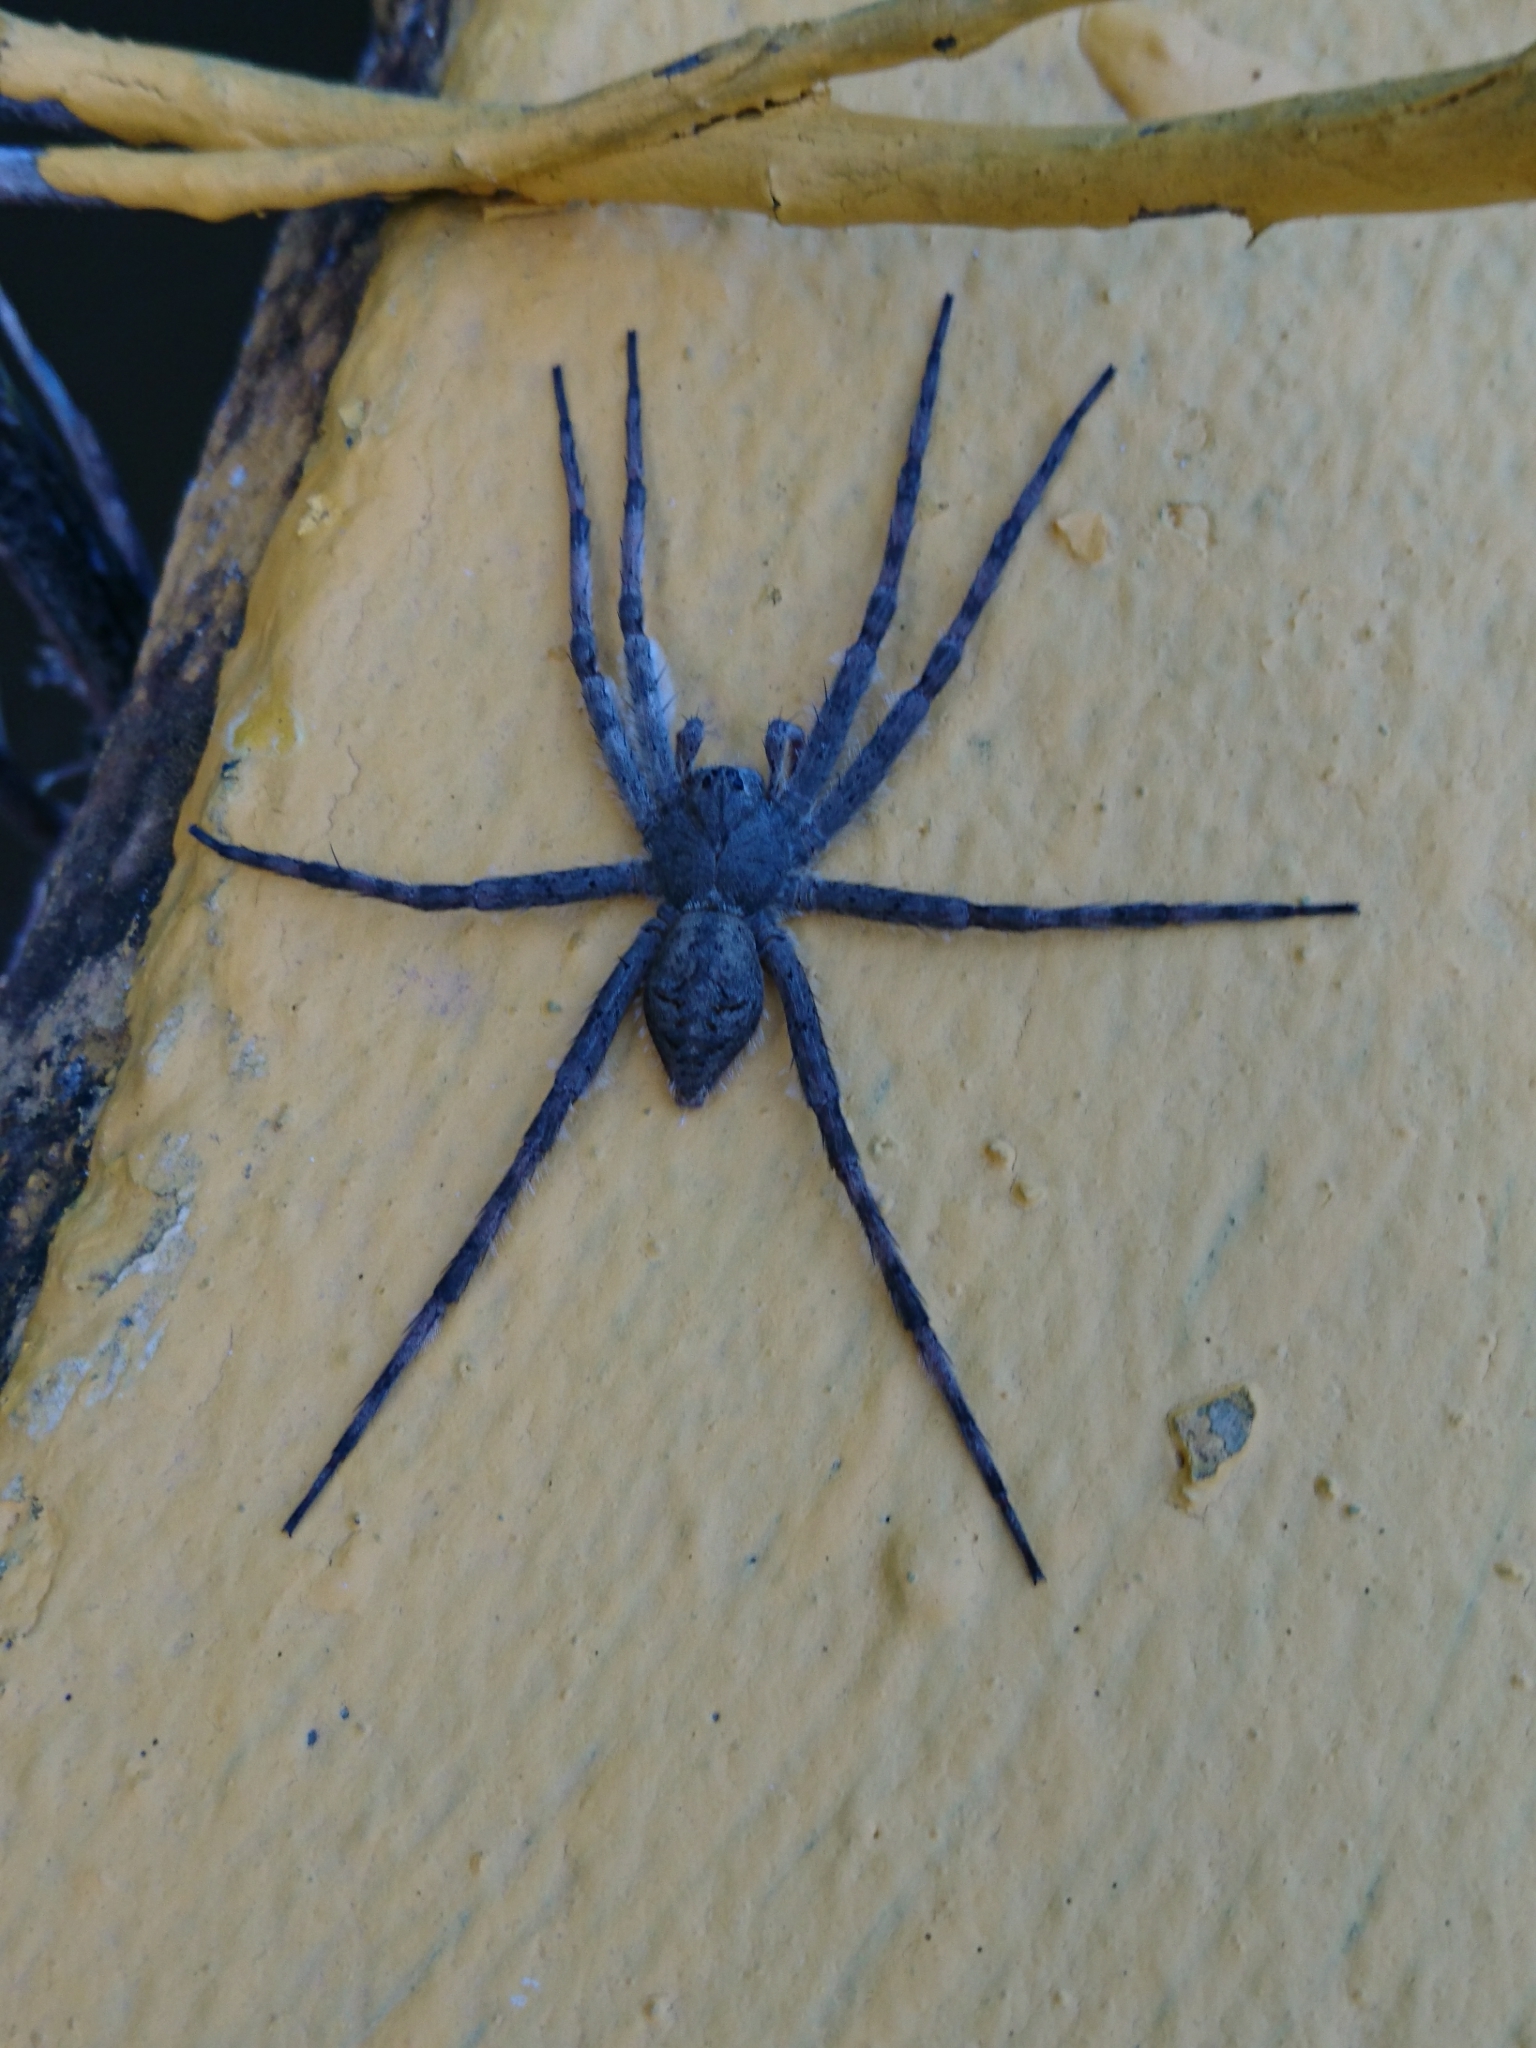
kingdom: Animalia
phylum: Arthropoda
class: Arachnida
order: Araneae
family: Pisauridae
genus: Dolomedes
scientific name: Dolomedes albineus
